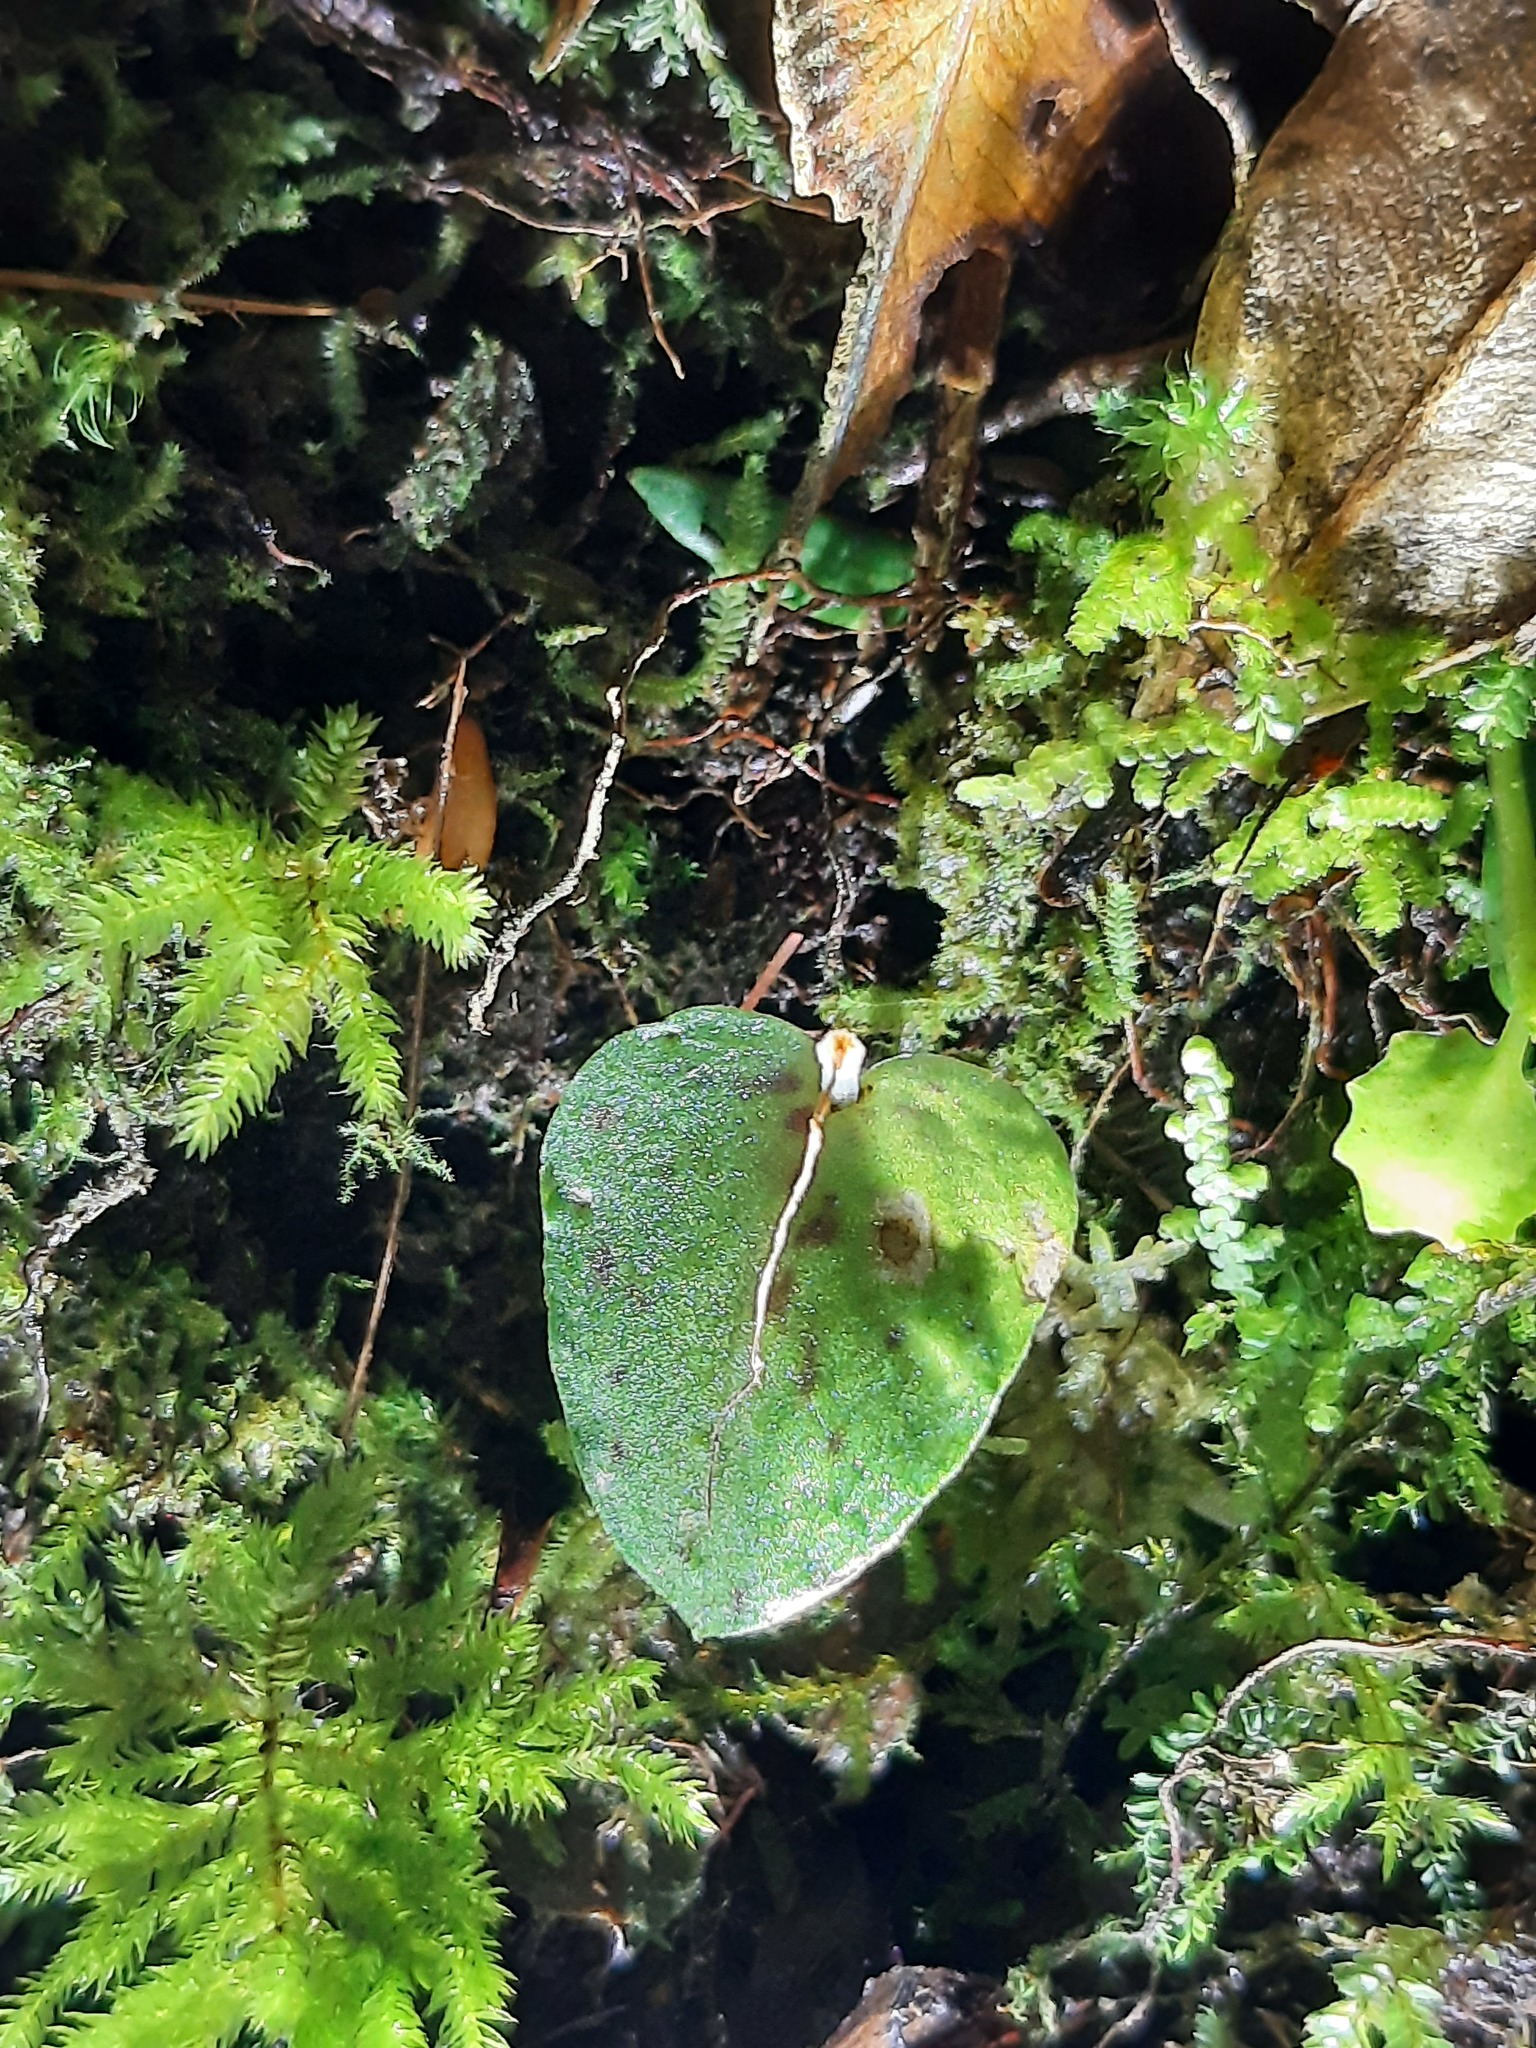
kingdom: Plantae
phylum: Tracheophyta
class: Liliopsida
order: Asparagales
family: Orchidaceae
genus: Corybas
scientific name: Corybas oblongus
